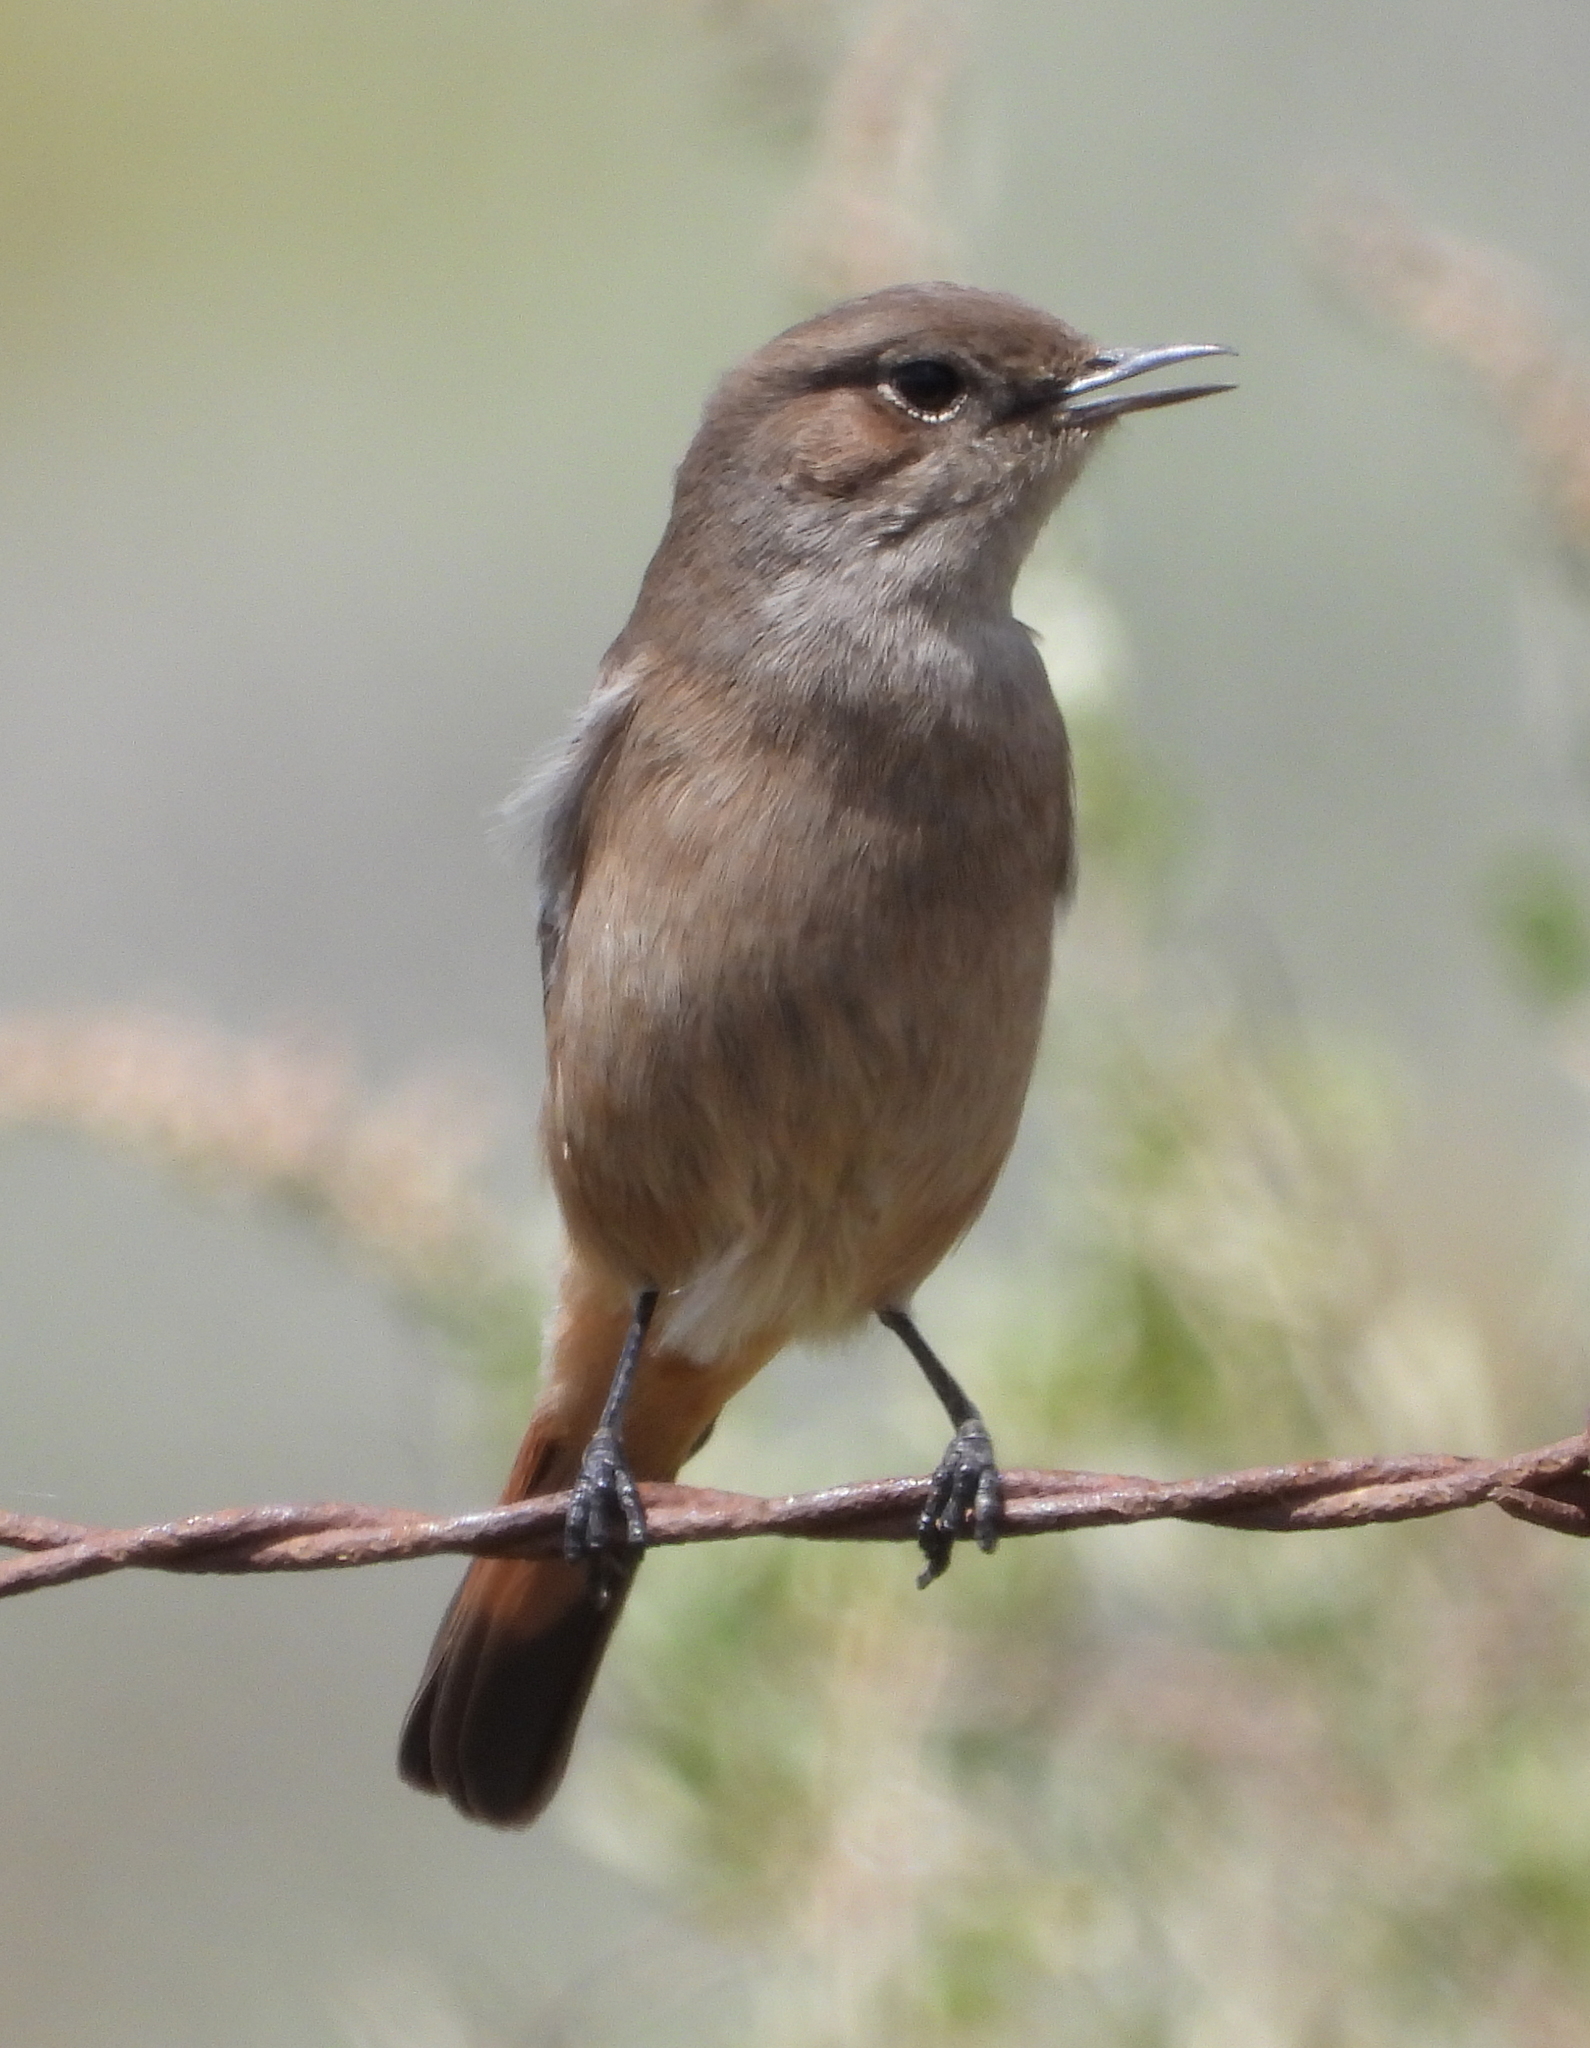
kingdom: Animalia
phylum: Chordata
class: Aves
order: Passeriformes
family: Muscicapidae
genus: Oenanthe
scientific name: Oenanthe familiaris
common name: Familiar chat
